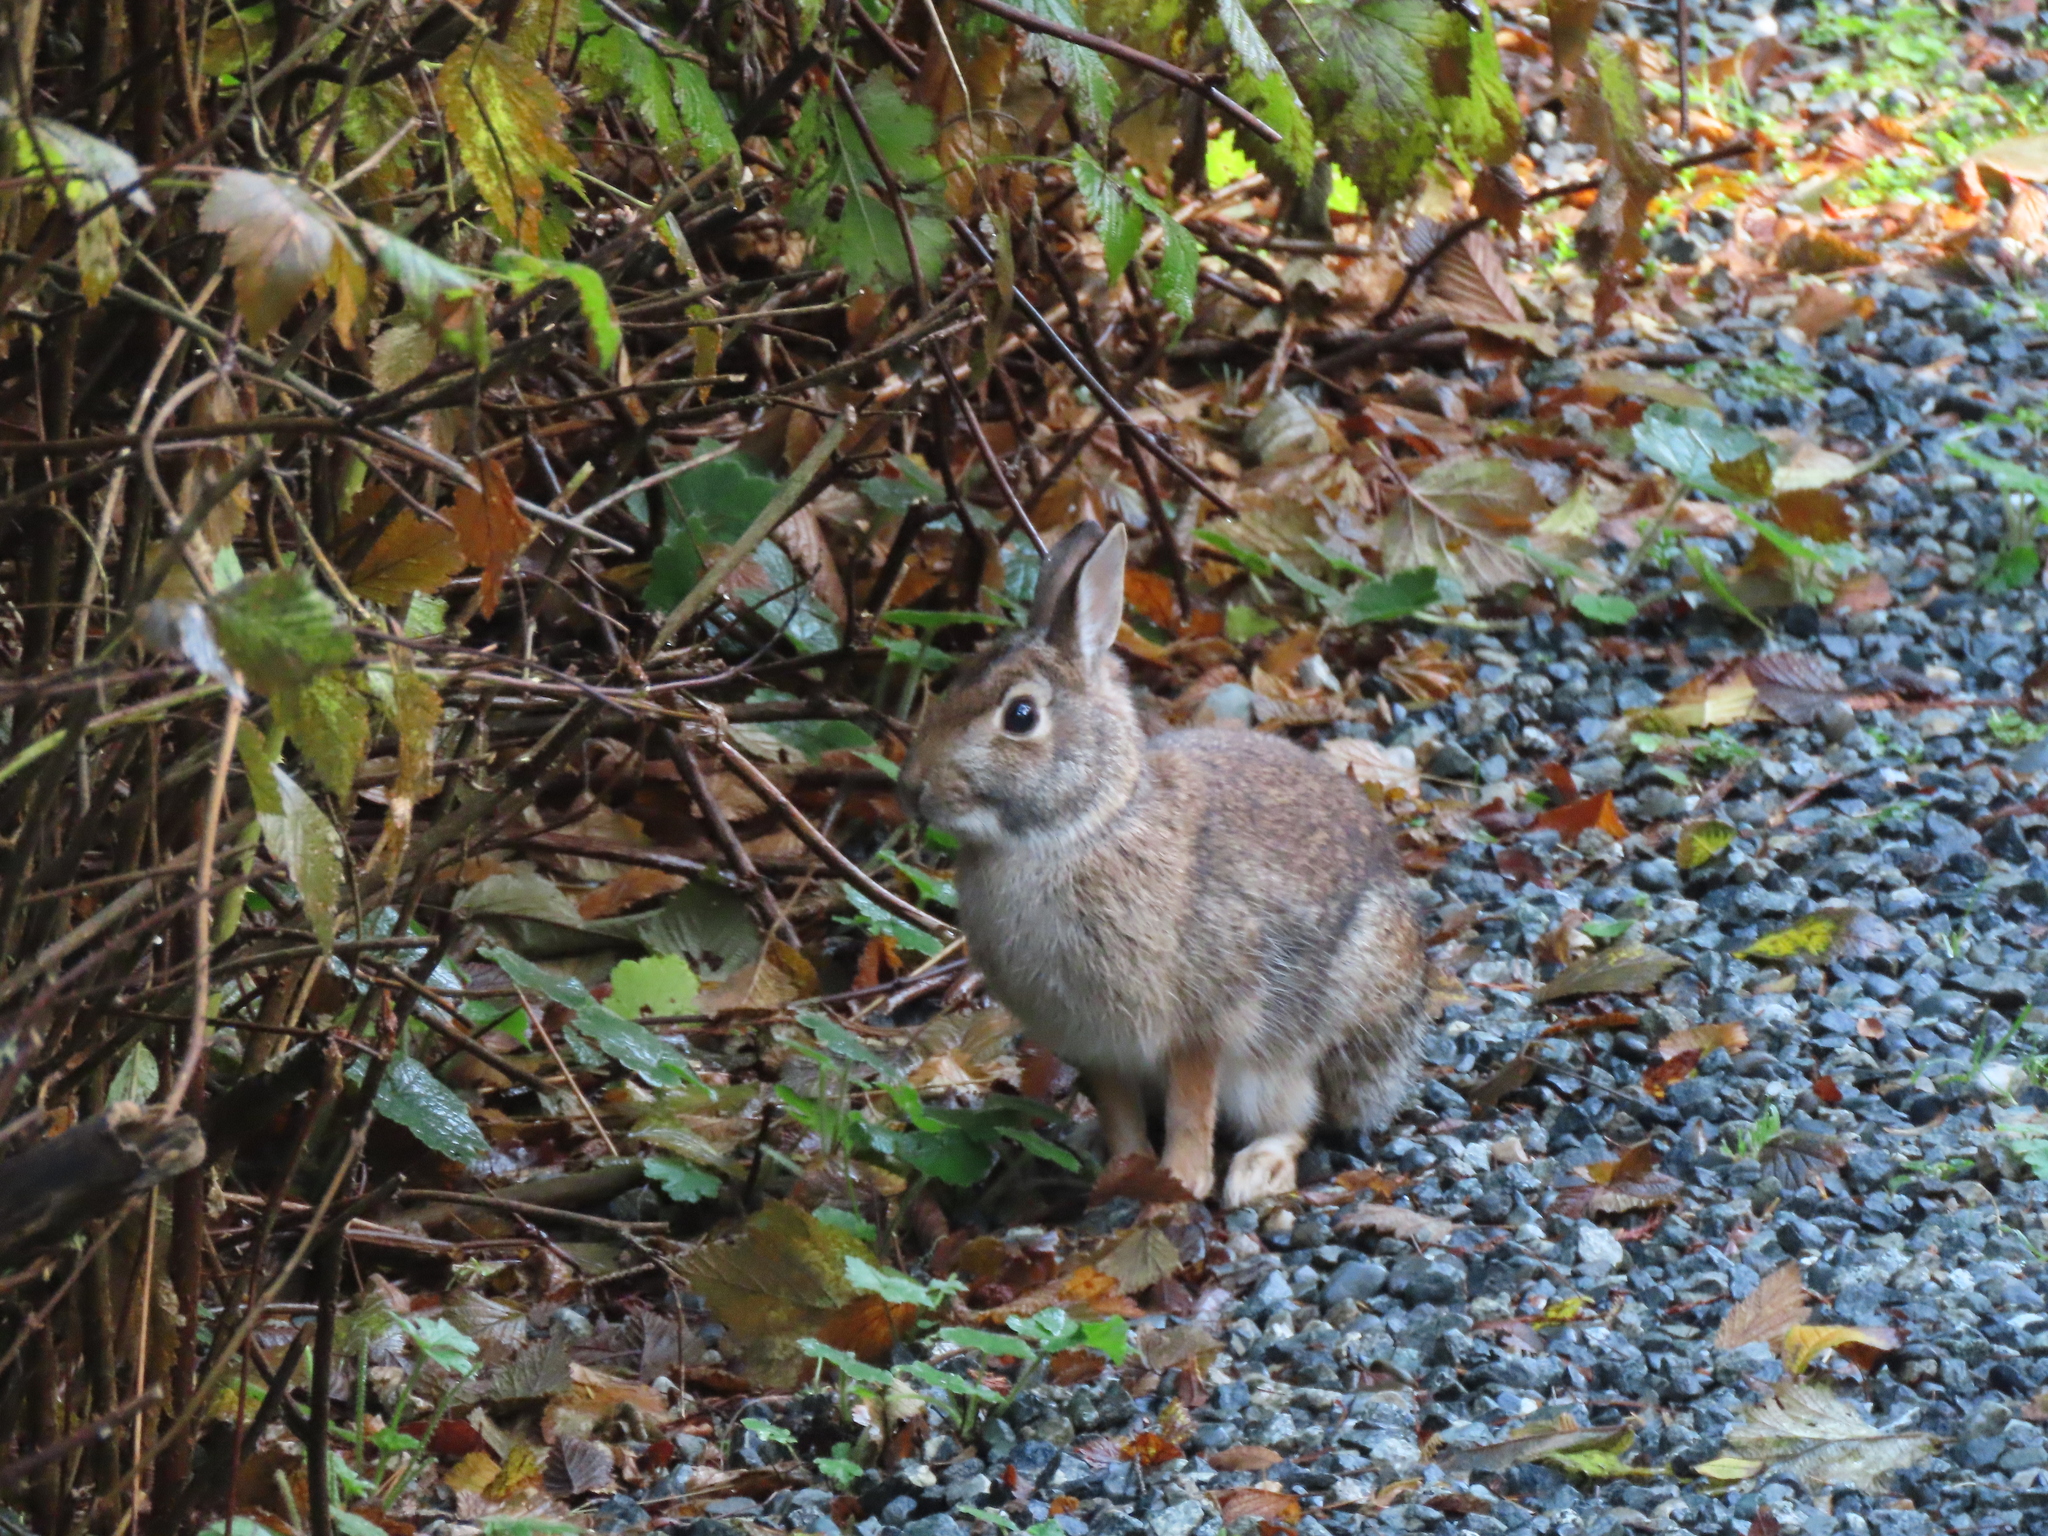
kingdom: Animalia
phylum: Chordata
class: Mammalia
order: Lagomorpha
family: Leporidae
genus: Sylvilagus
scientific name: Sylvilagus floridanus
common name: Eastern cottontail
